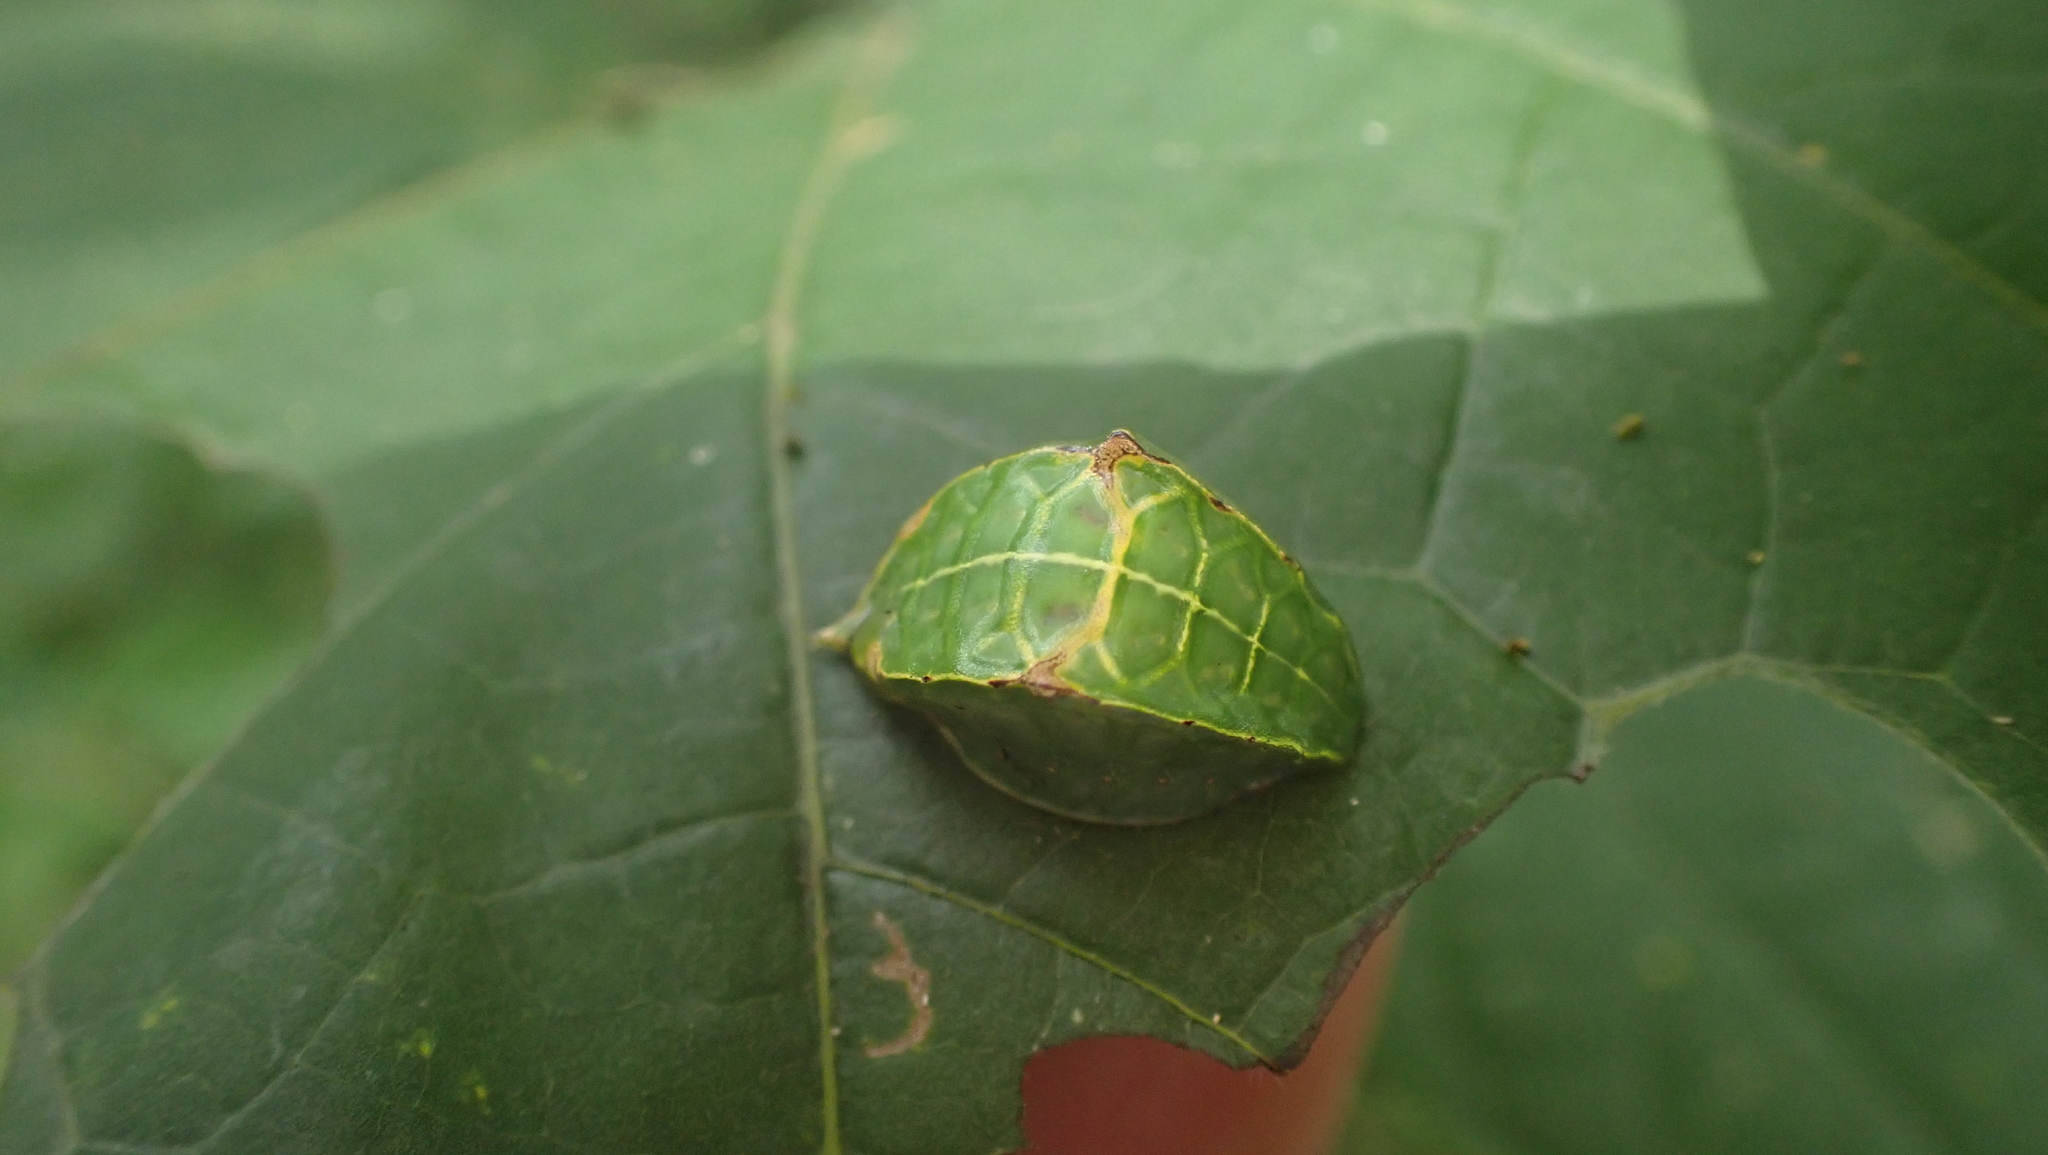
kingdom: Animalia
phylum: Arthropoda
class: Insecta
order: Lepidoptera
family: Limacodidae
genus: Prolimacodes
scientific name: Prolimacodes badia
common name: Skiff moth
